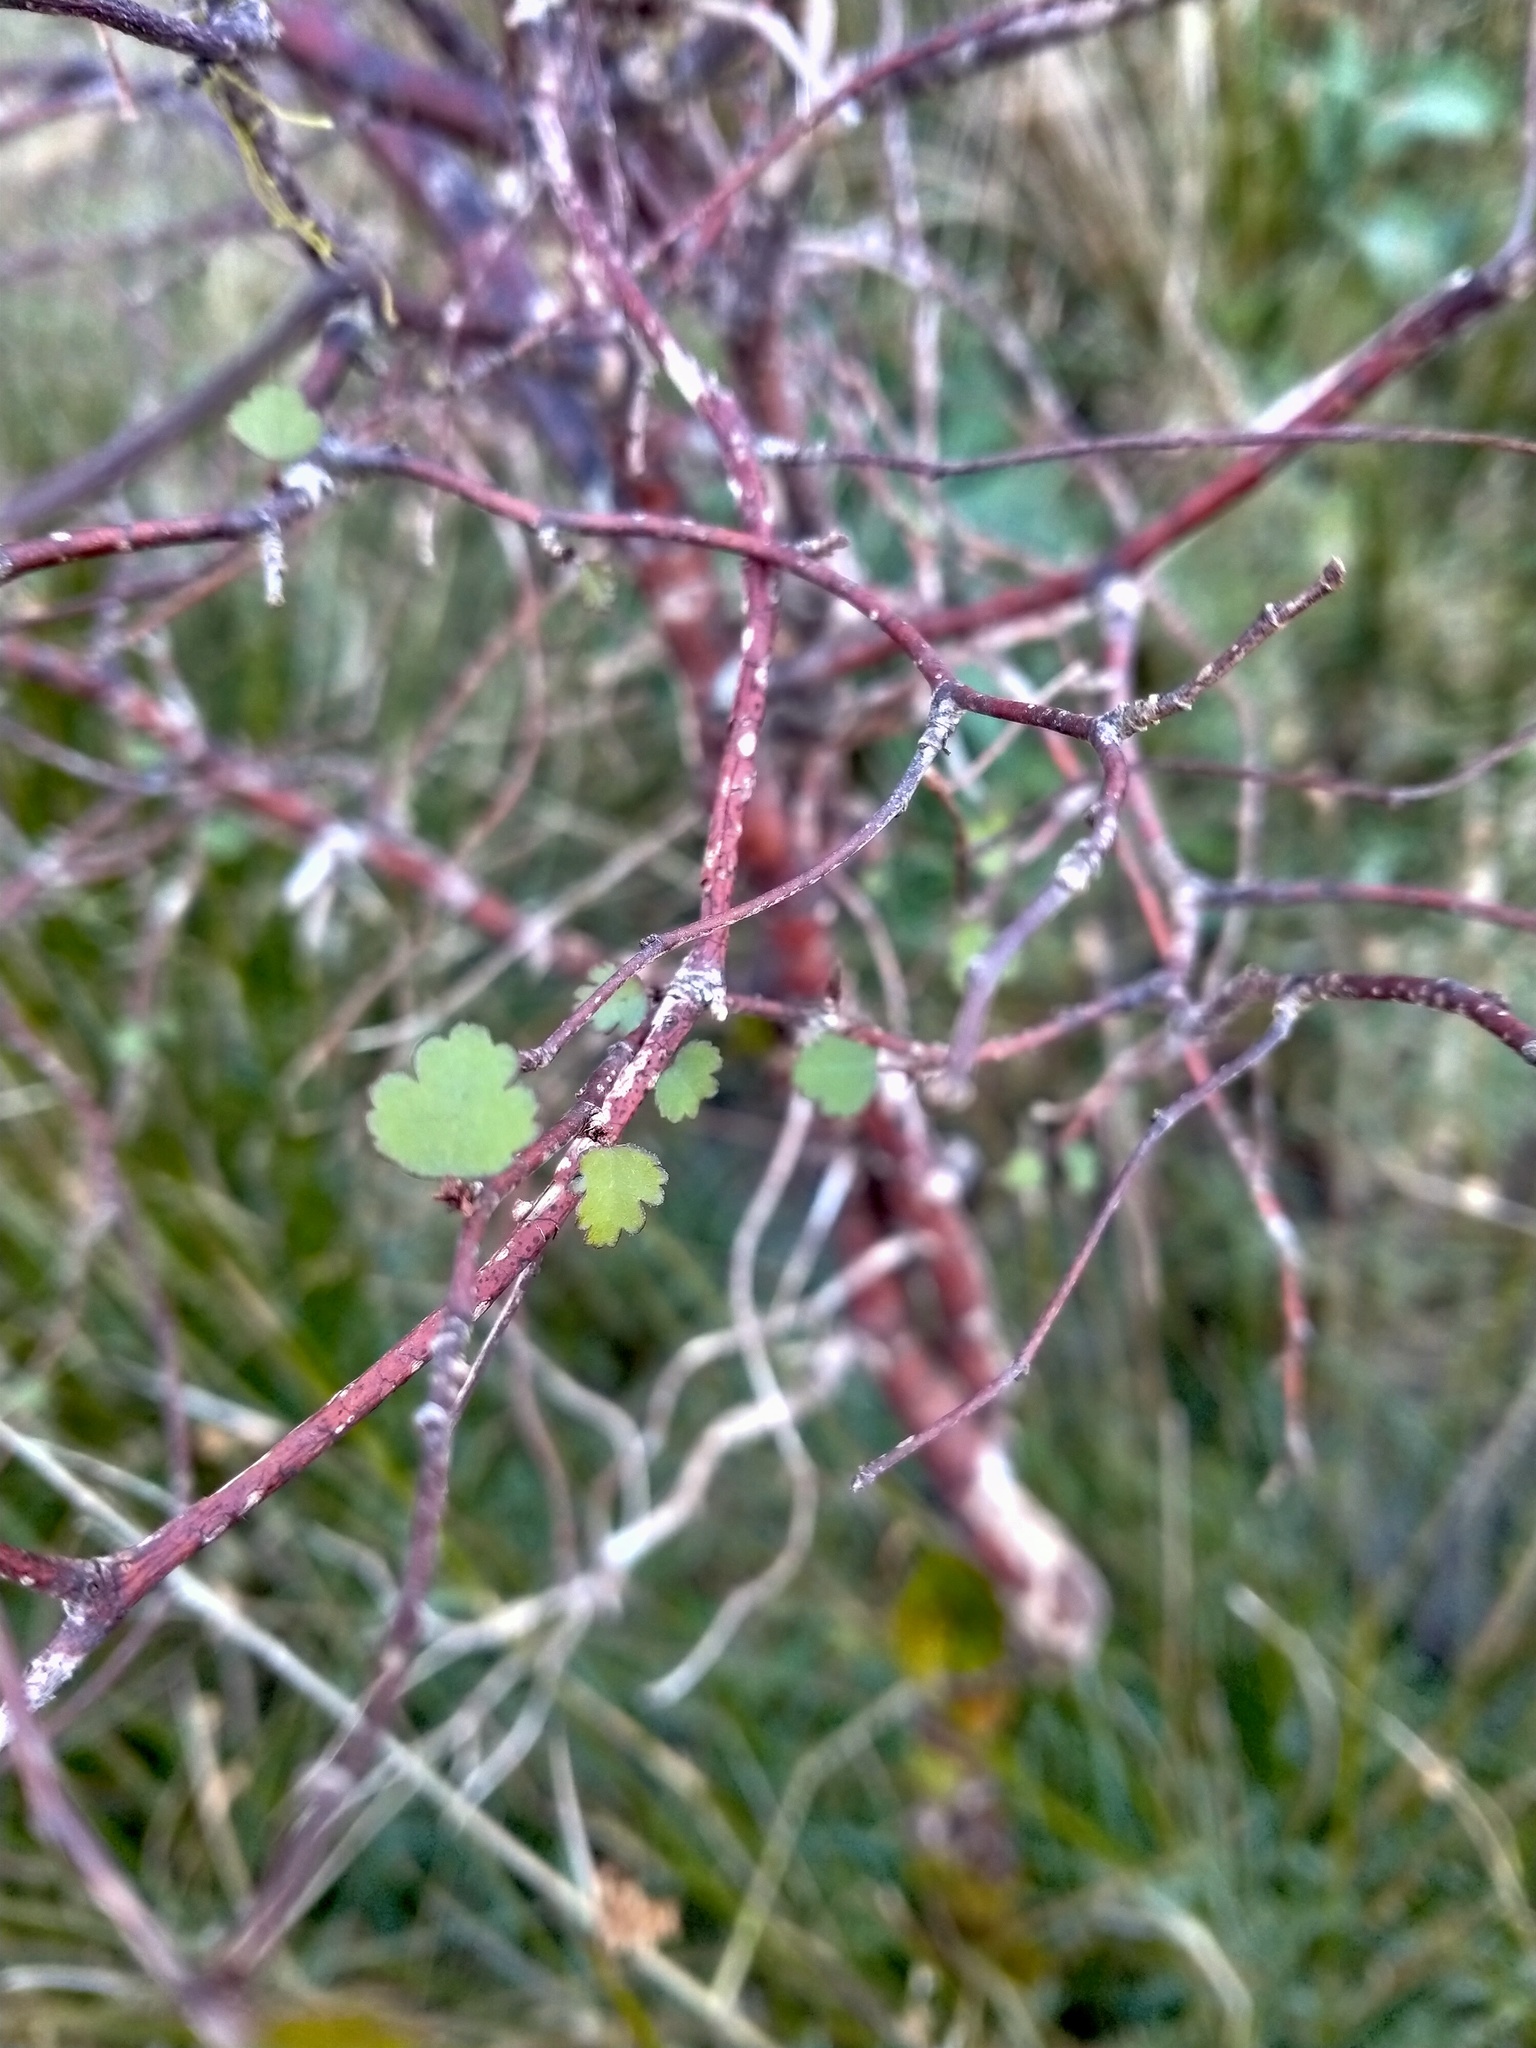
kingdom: Plantae
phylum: Tracheophyta
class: Magnoliopsida
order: Malvales
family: Malvaceae
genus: Plagianthus
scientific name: Plagianthus regius
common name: Manatu
